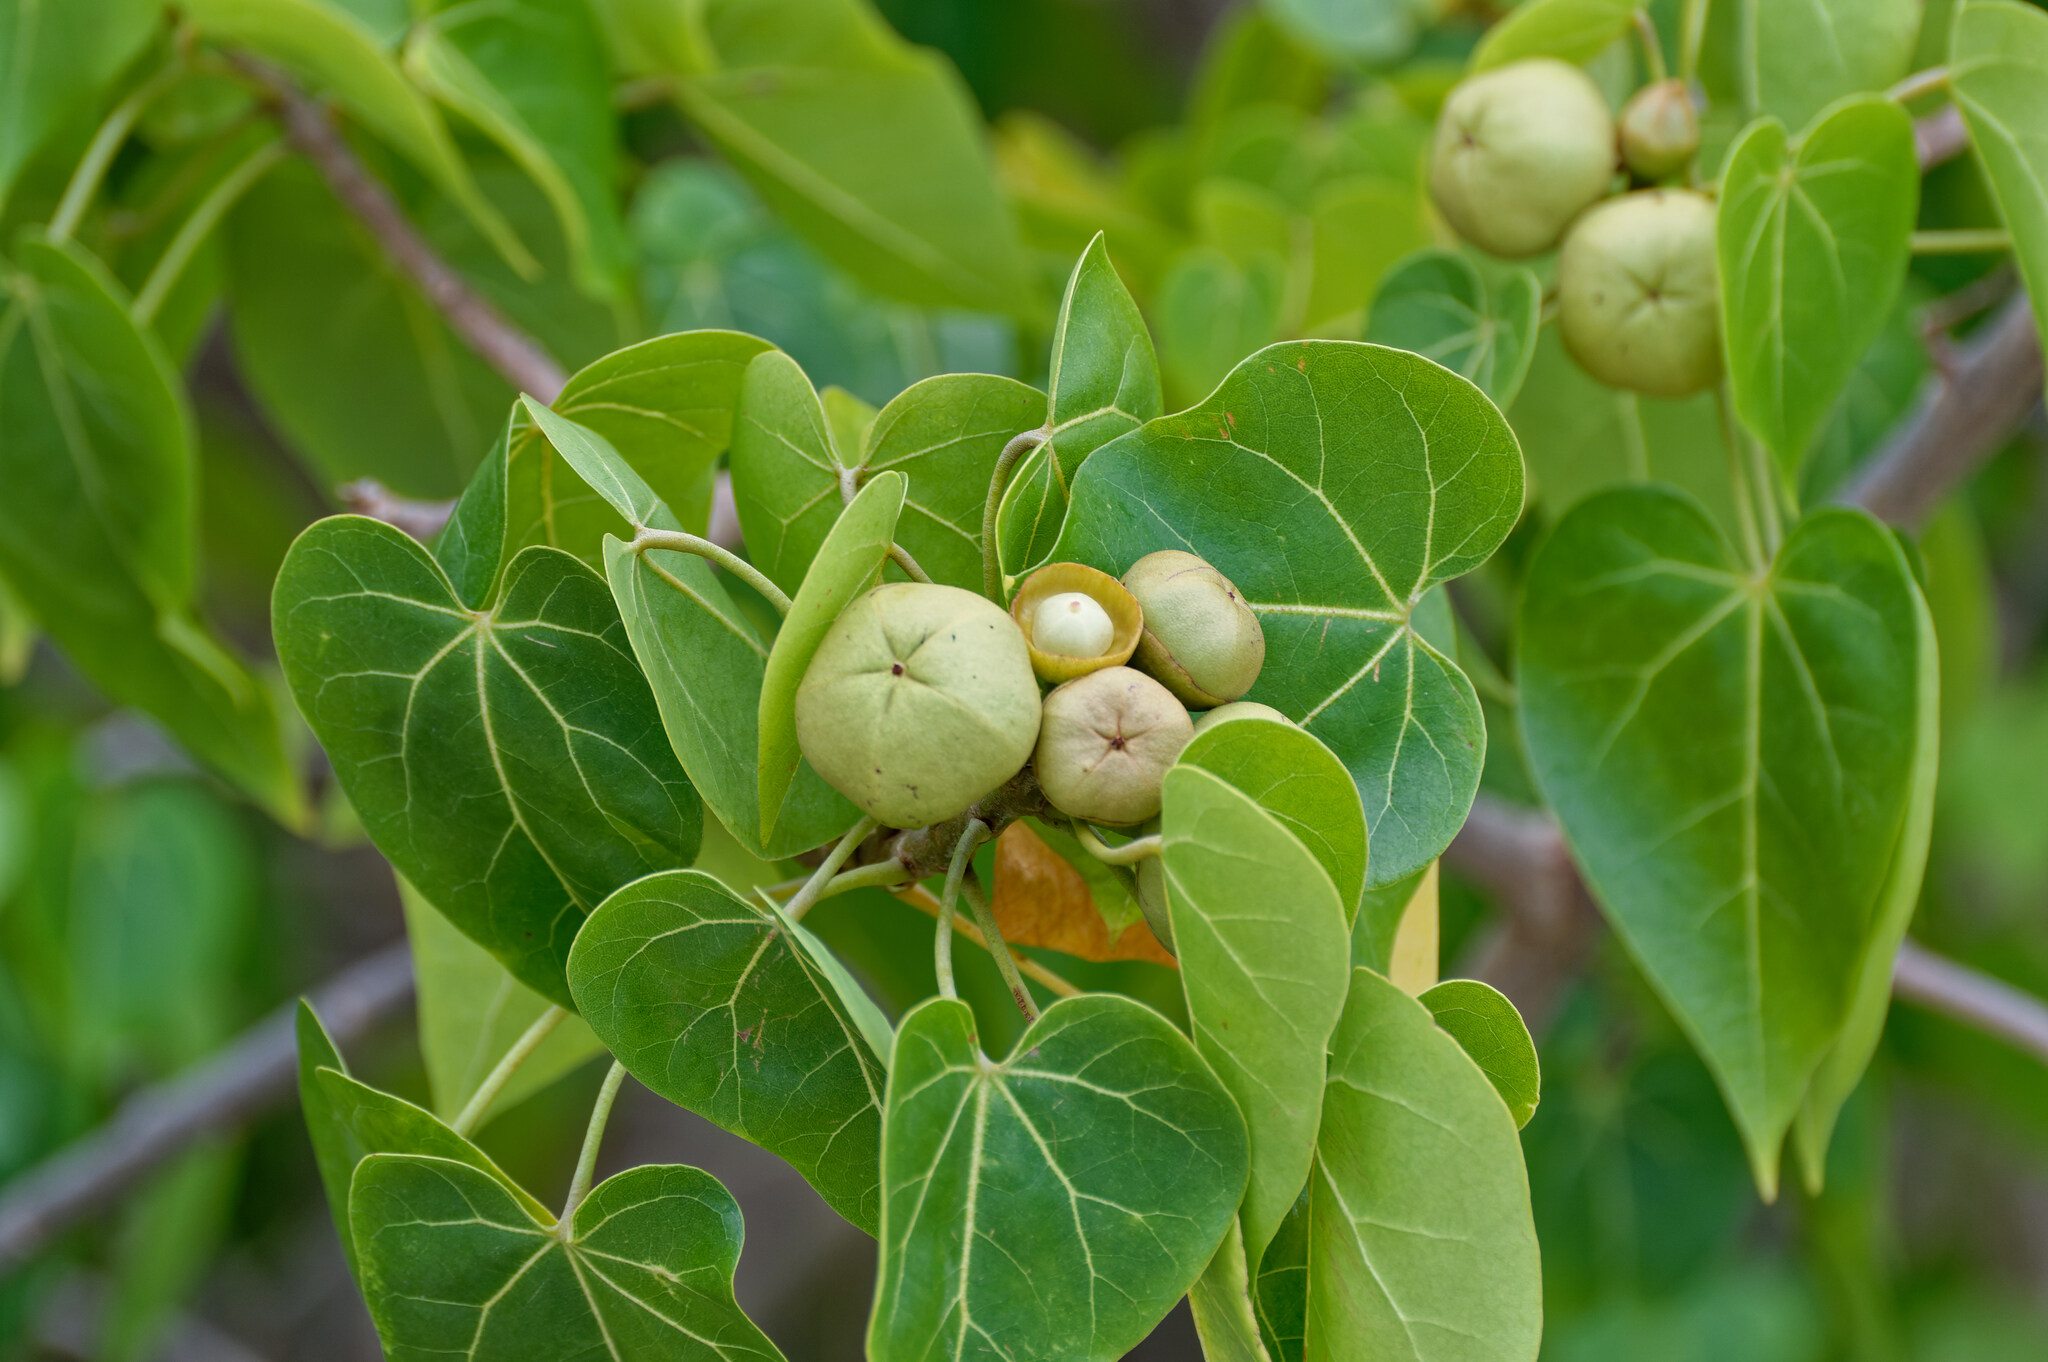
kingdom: Plantae
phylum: Tracheophyta
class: Magnoliopsida
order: Malvales
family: Malvaceae
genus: Thespesia
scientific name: Thespesia populnea
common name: Seaside mahoe
